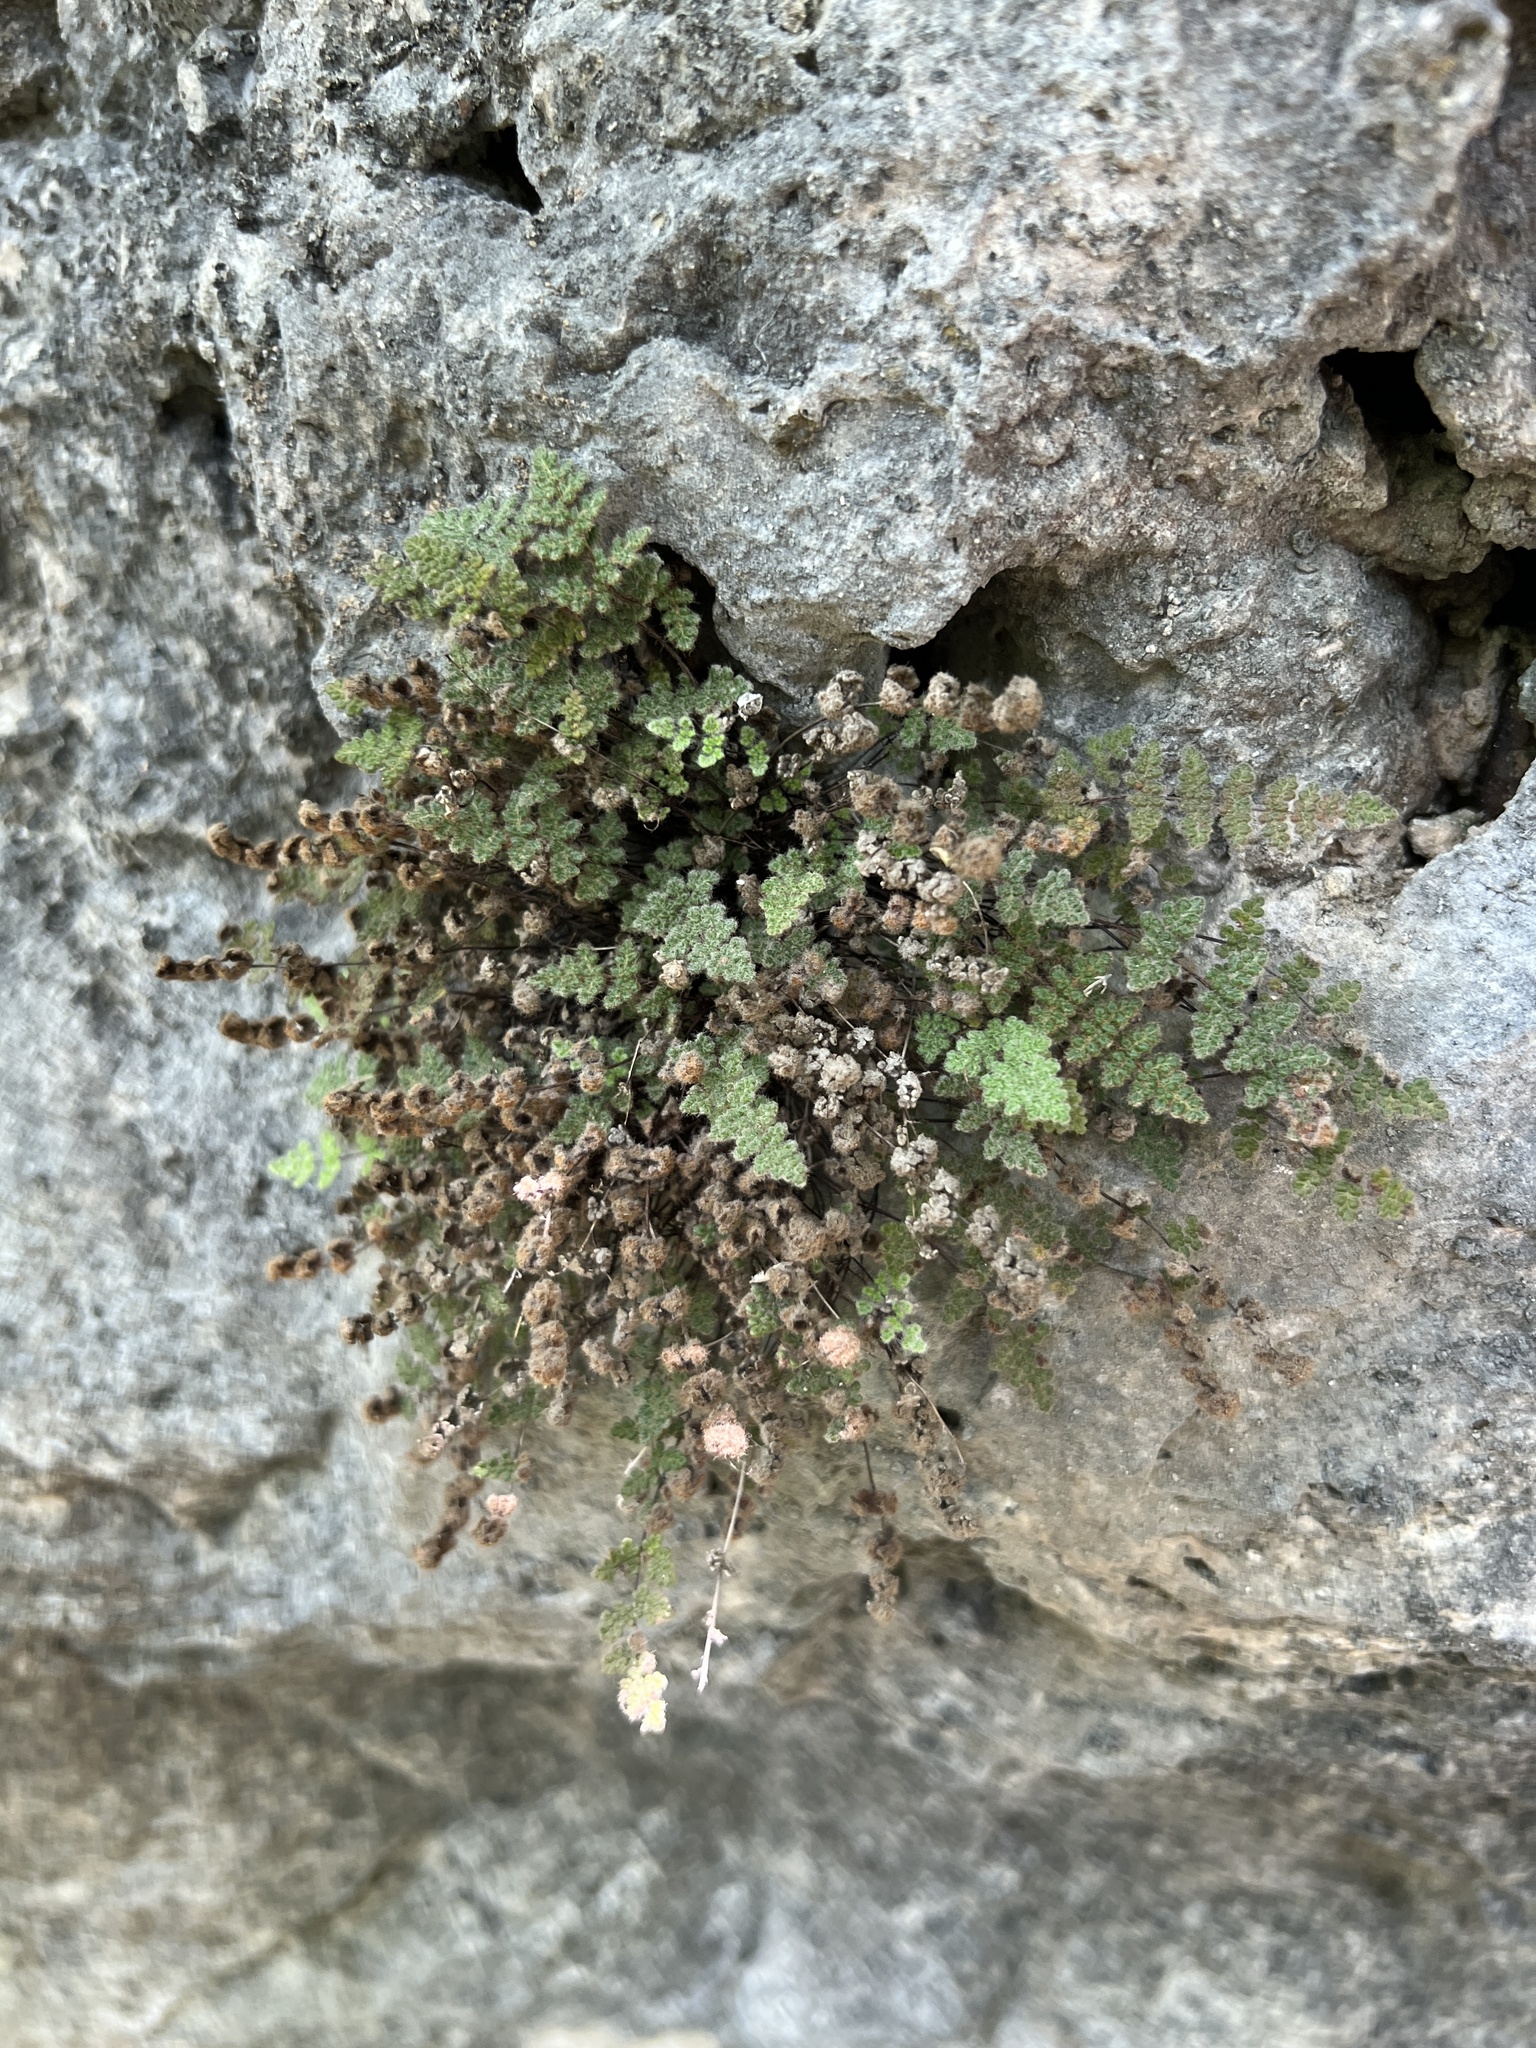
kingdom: Plantae
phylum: Tracheophyta
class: Polypodiopsida
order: Polypodiales
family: Pteridaceae
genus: Myriopteris
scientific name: Myriopteris gracilis
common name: Fee's lip fern
